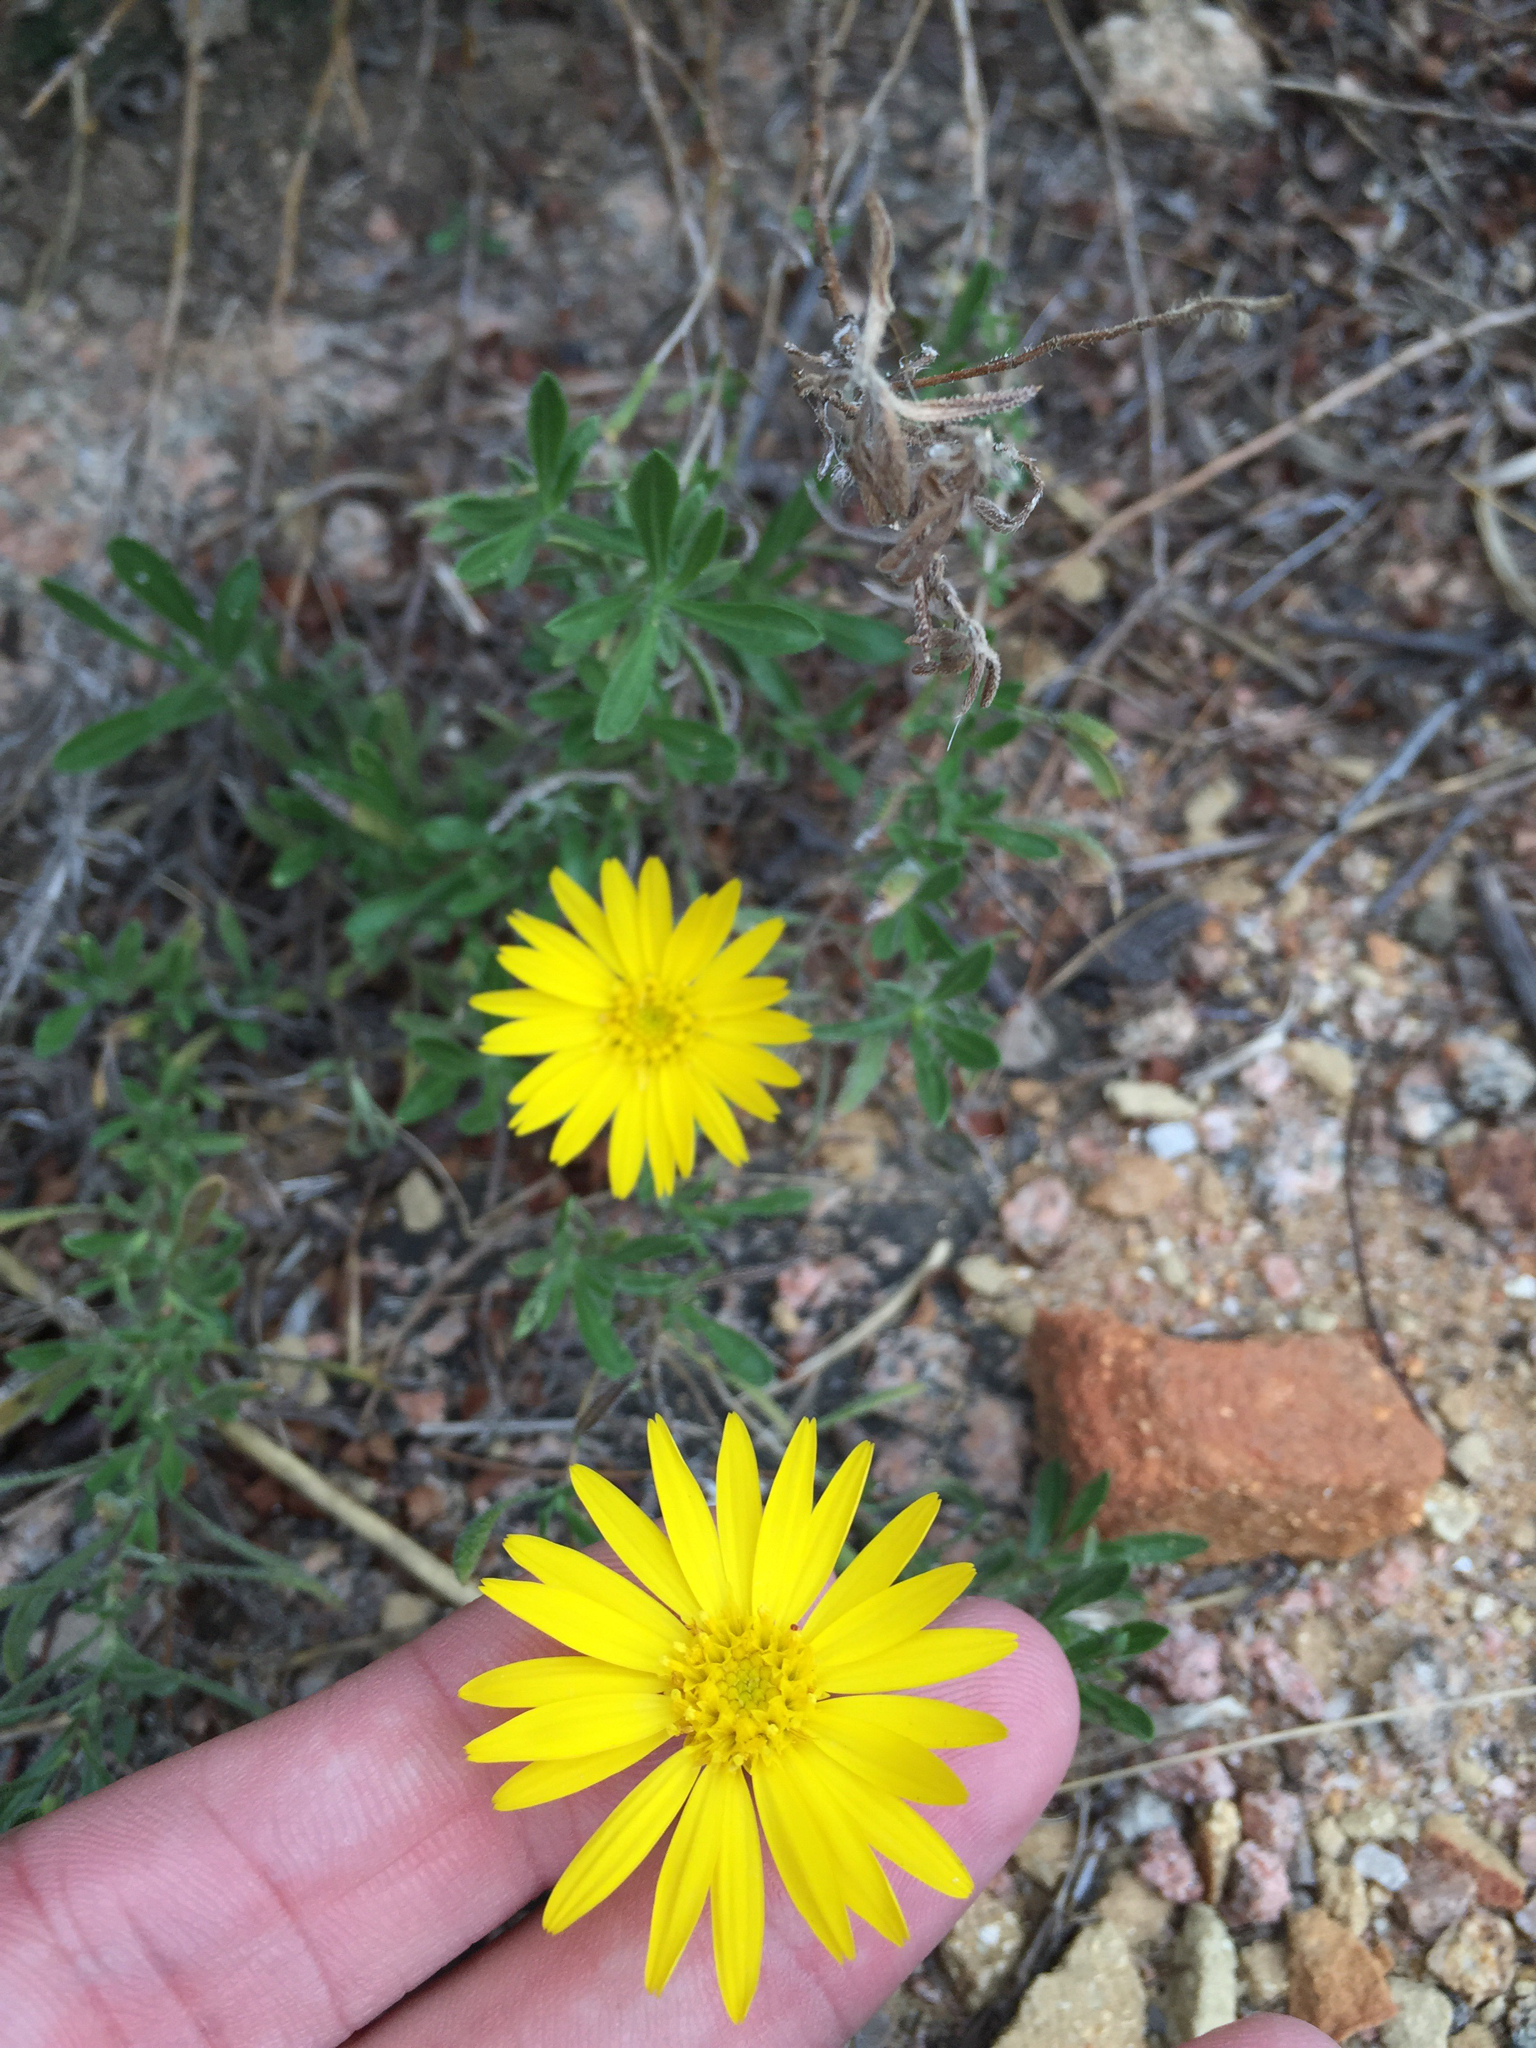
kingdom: Plantae
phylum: Tracheophyta
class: Magnoliopsida
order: Asterales
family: Asteraceae
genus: Heterotheca
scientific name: Heterotheca stenophylla
